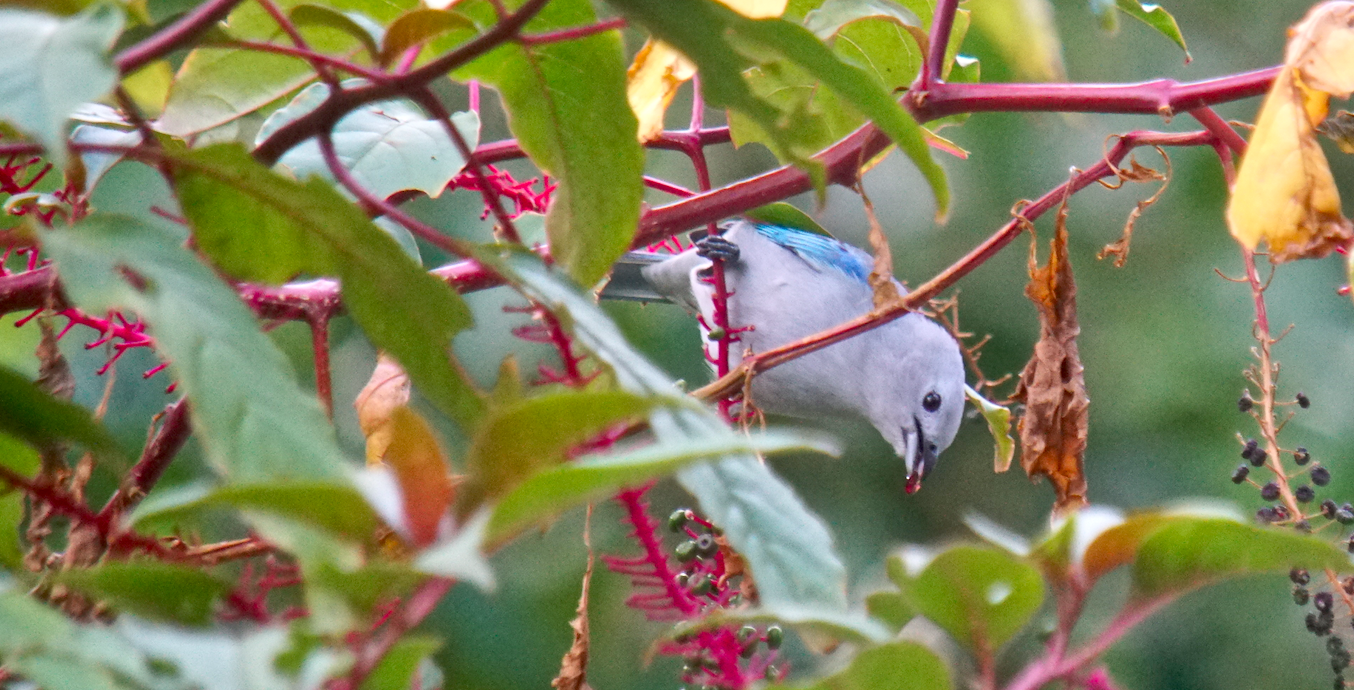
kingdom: Animalia
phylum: Chordata
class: Aves
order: Passeriformes
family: Thraupidae
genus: Thraupis
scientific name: Thraupis episcopus
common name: Blue-grey tanager
